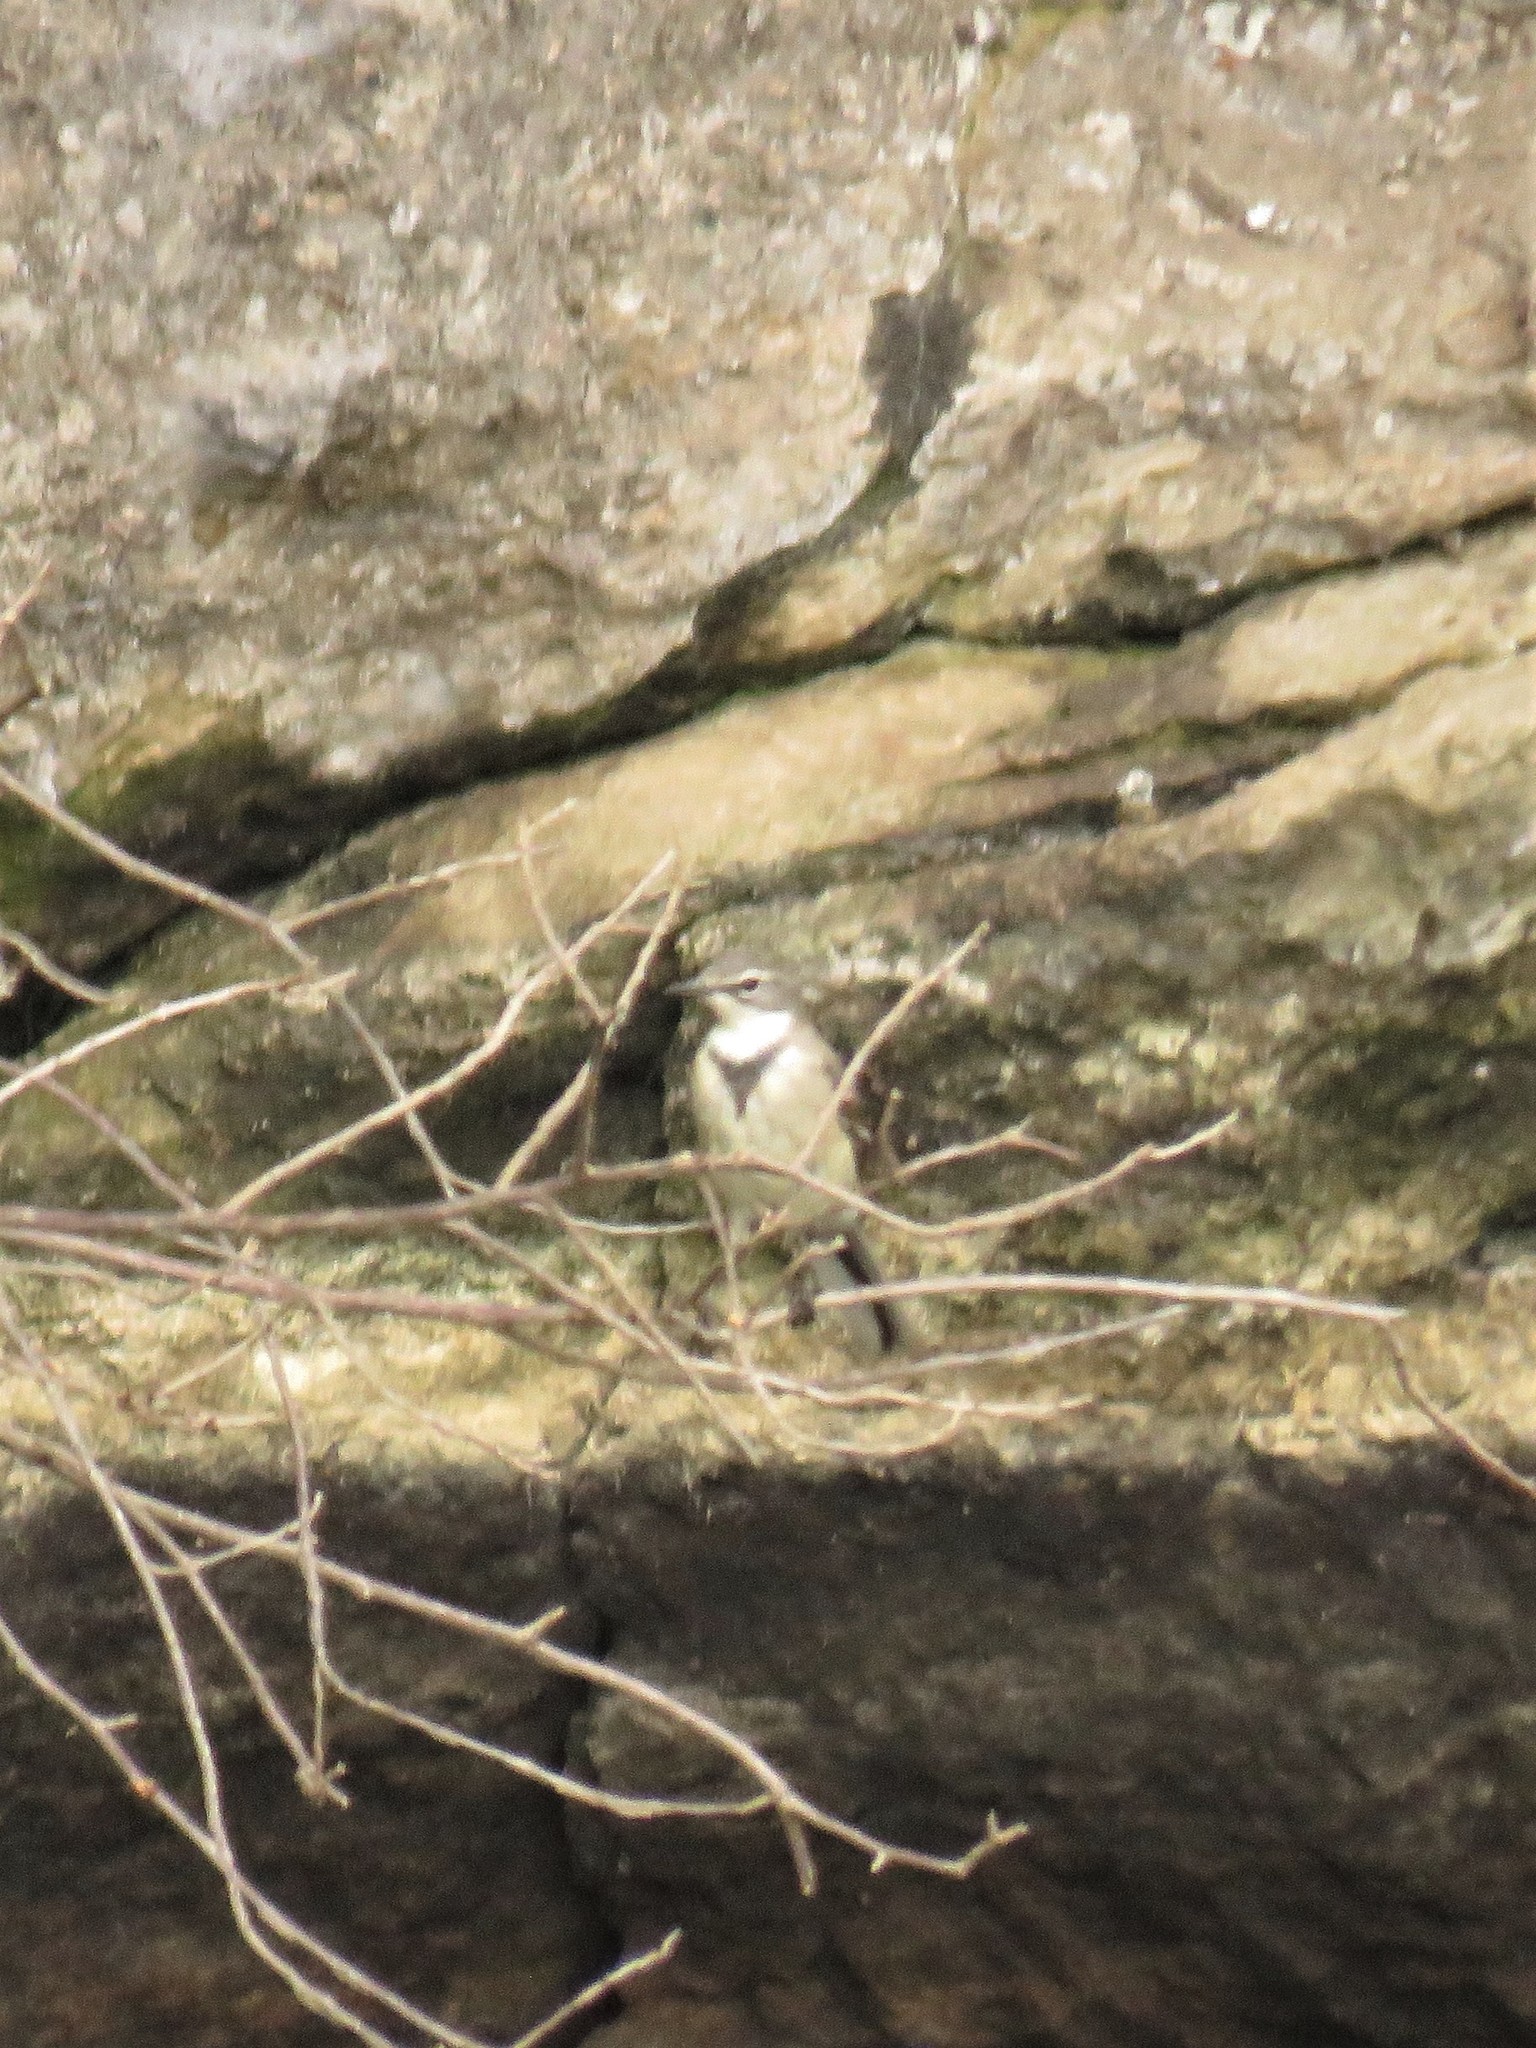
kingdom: Animalia
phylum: Chordata
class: Aves
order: Passeriformes
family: Motacillidae
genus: Motacilla
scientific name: Motacilla capensis
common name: Cape wagtail
